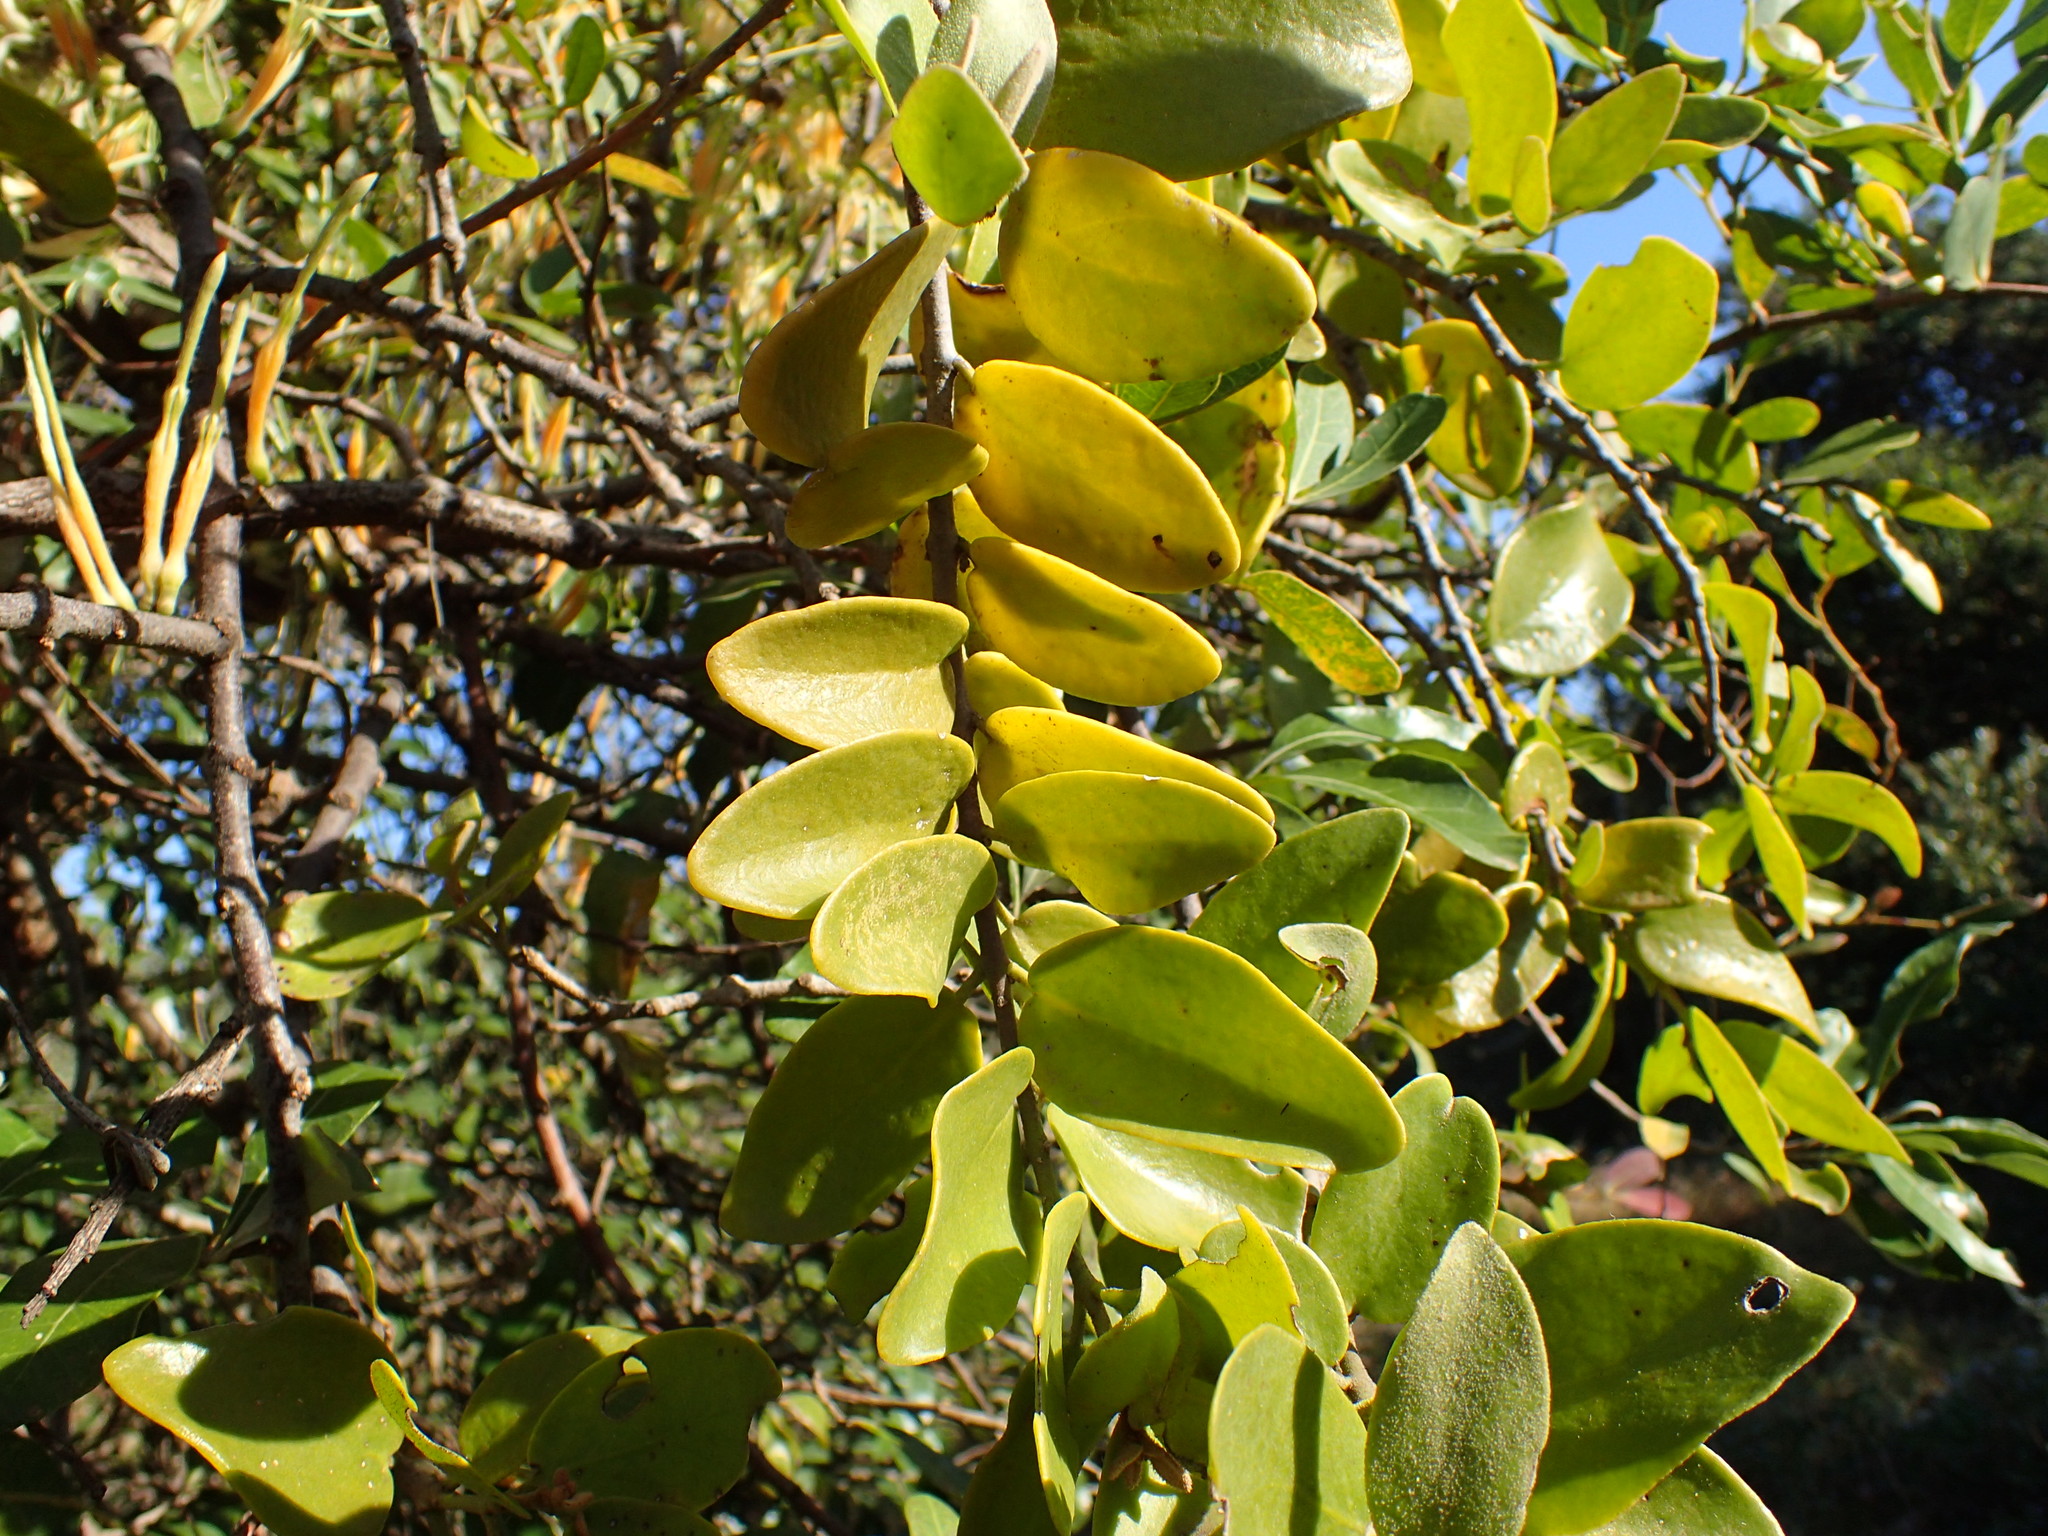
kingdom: Plantae
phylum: Tracheophyta
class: Magnoliopsida
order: Santalales
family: Loranthaceae
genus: Erianthemum
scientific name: Erianthemum dregei
